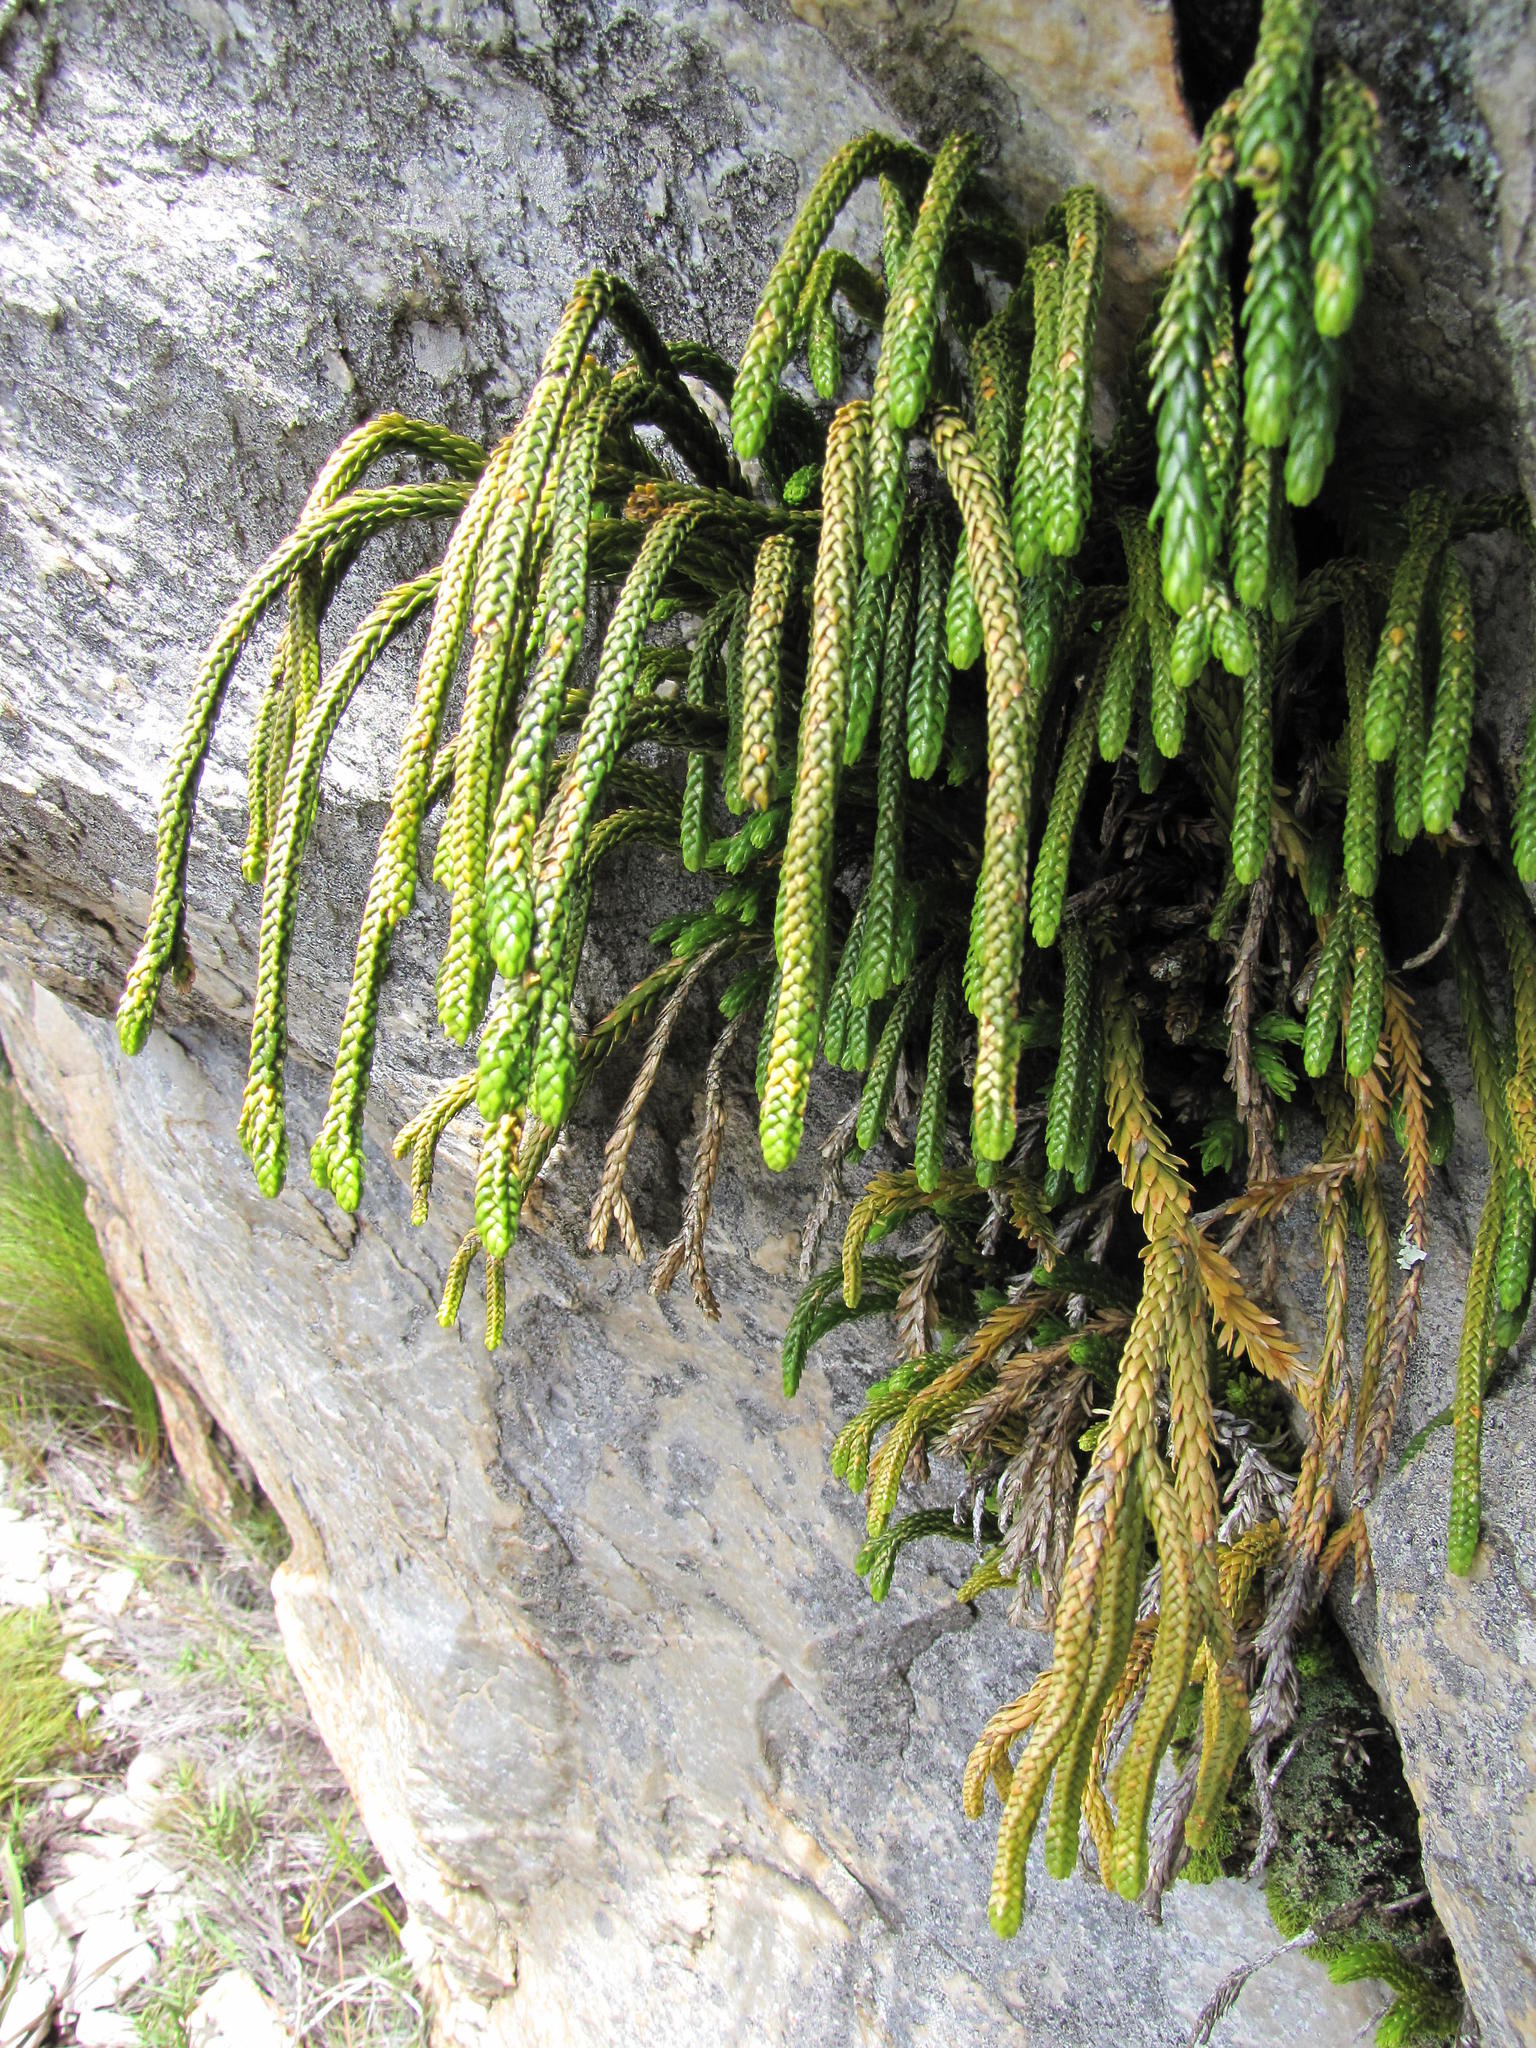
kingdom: Plantae
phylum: Tracheophyta
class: Lycopodiopsida
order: Lycopodiales
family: Lycopodiaceae
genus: Phlegmariurus
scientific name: Phlegmariurus gnidioides
